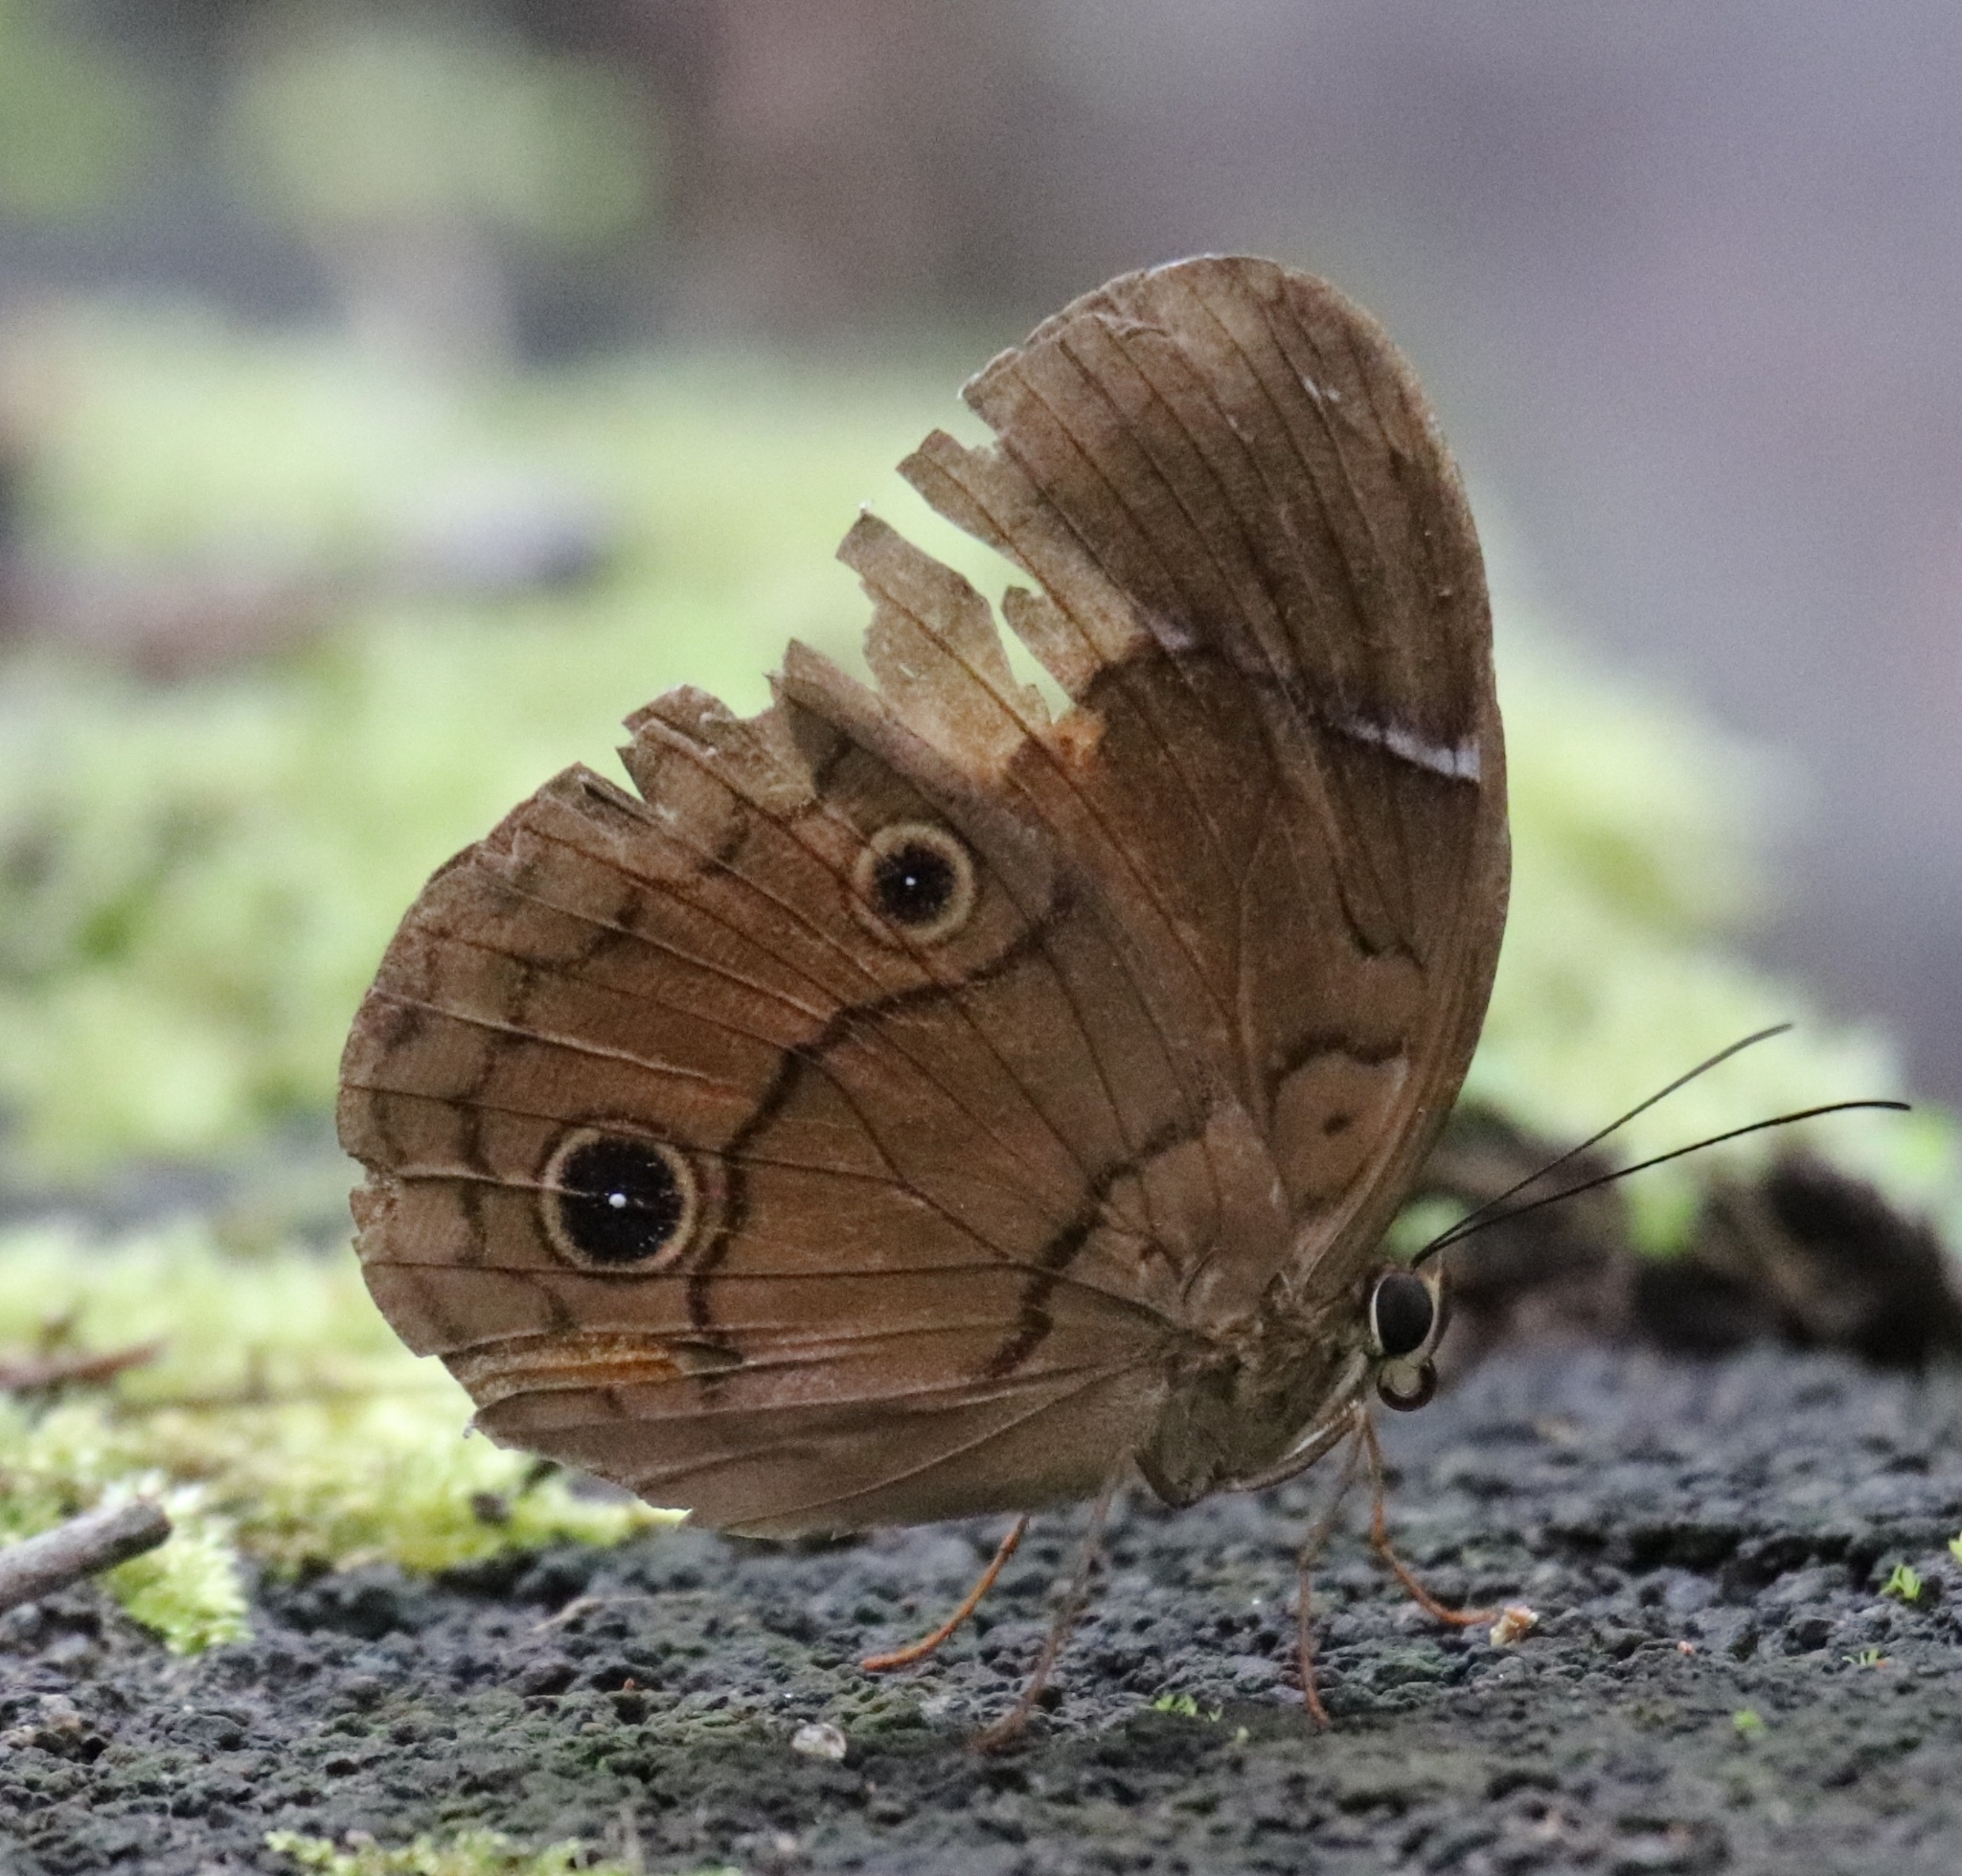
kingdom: Animalia
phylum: Arthropoda
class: Insecta
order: Lepidoptera
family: Nymphalidae
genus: Faunis
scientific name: Faunis menado
